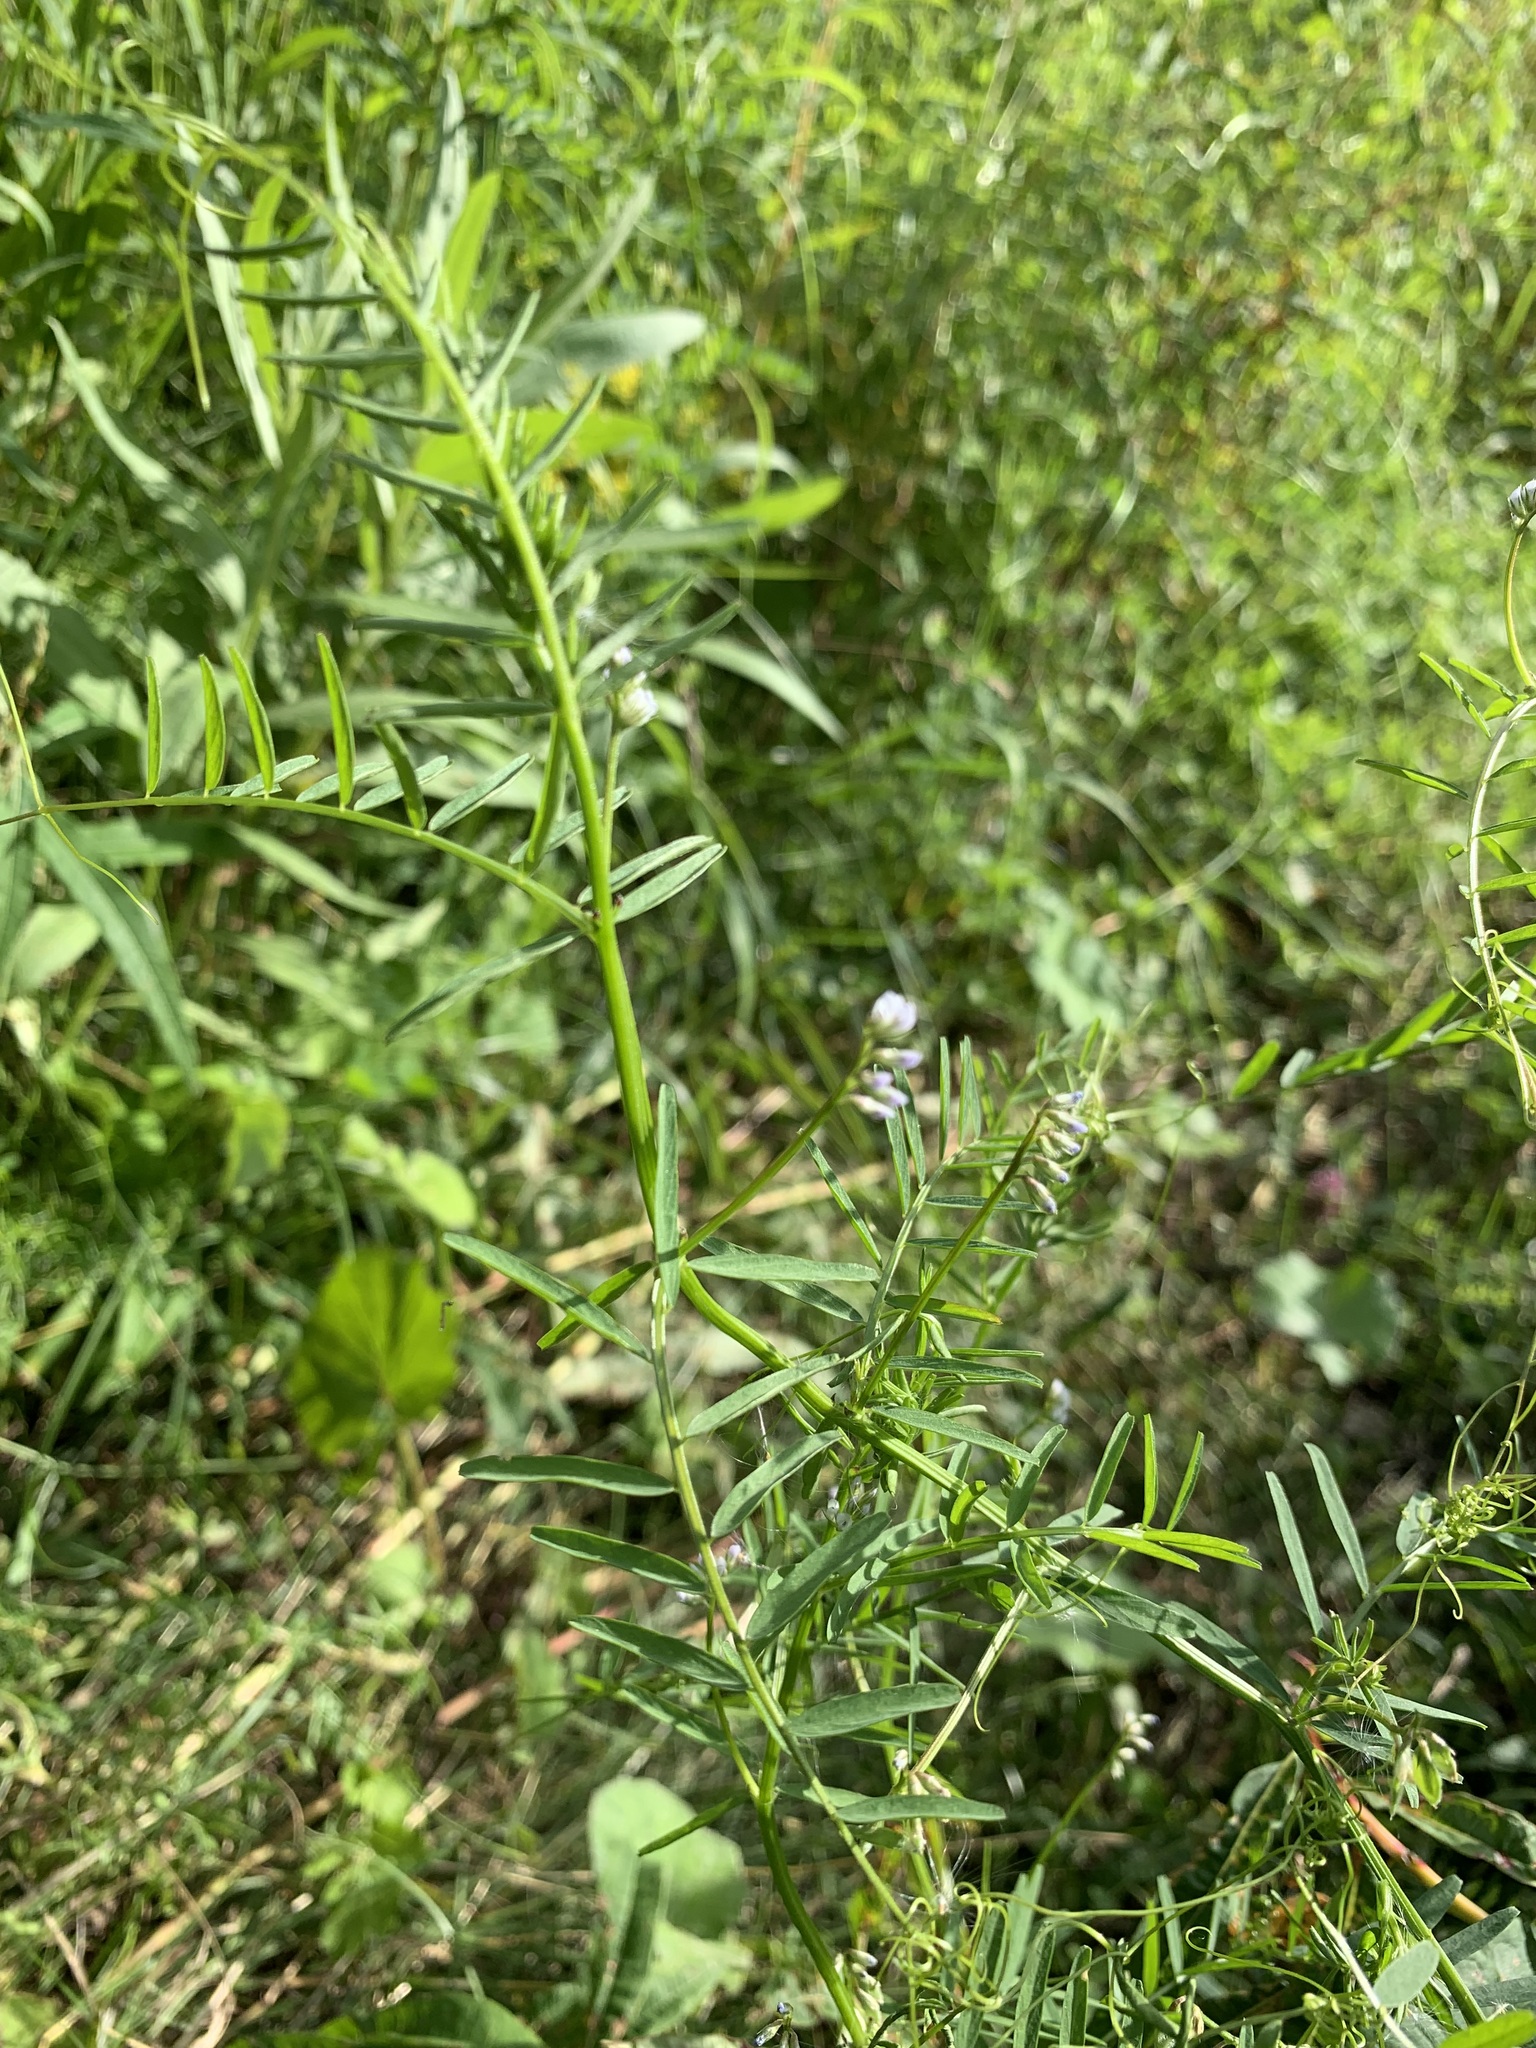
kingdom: Plantae
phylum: Tracheophyta
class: Magnoliopsida
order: Fabales
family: Fabaceae
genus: Vicia
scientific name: Vicia hirsuta
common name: Tiny vetch
